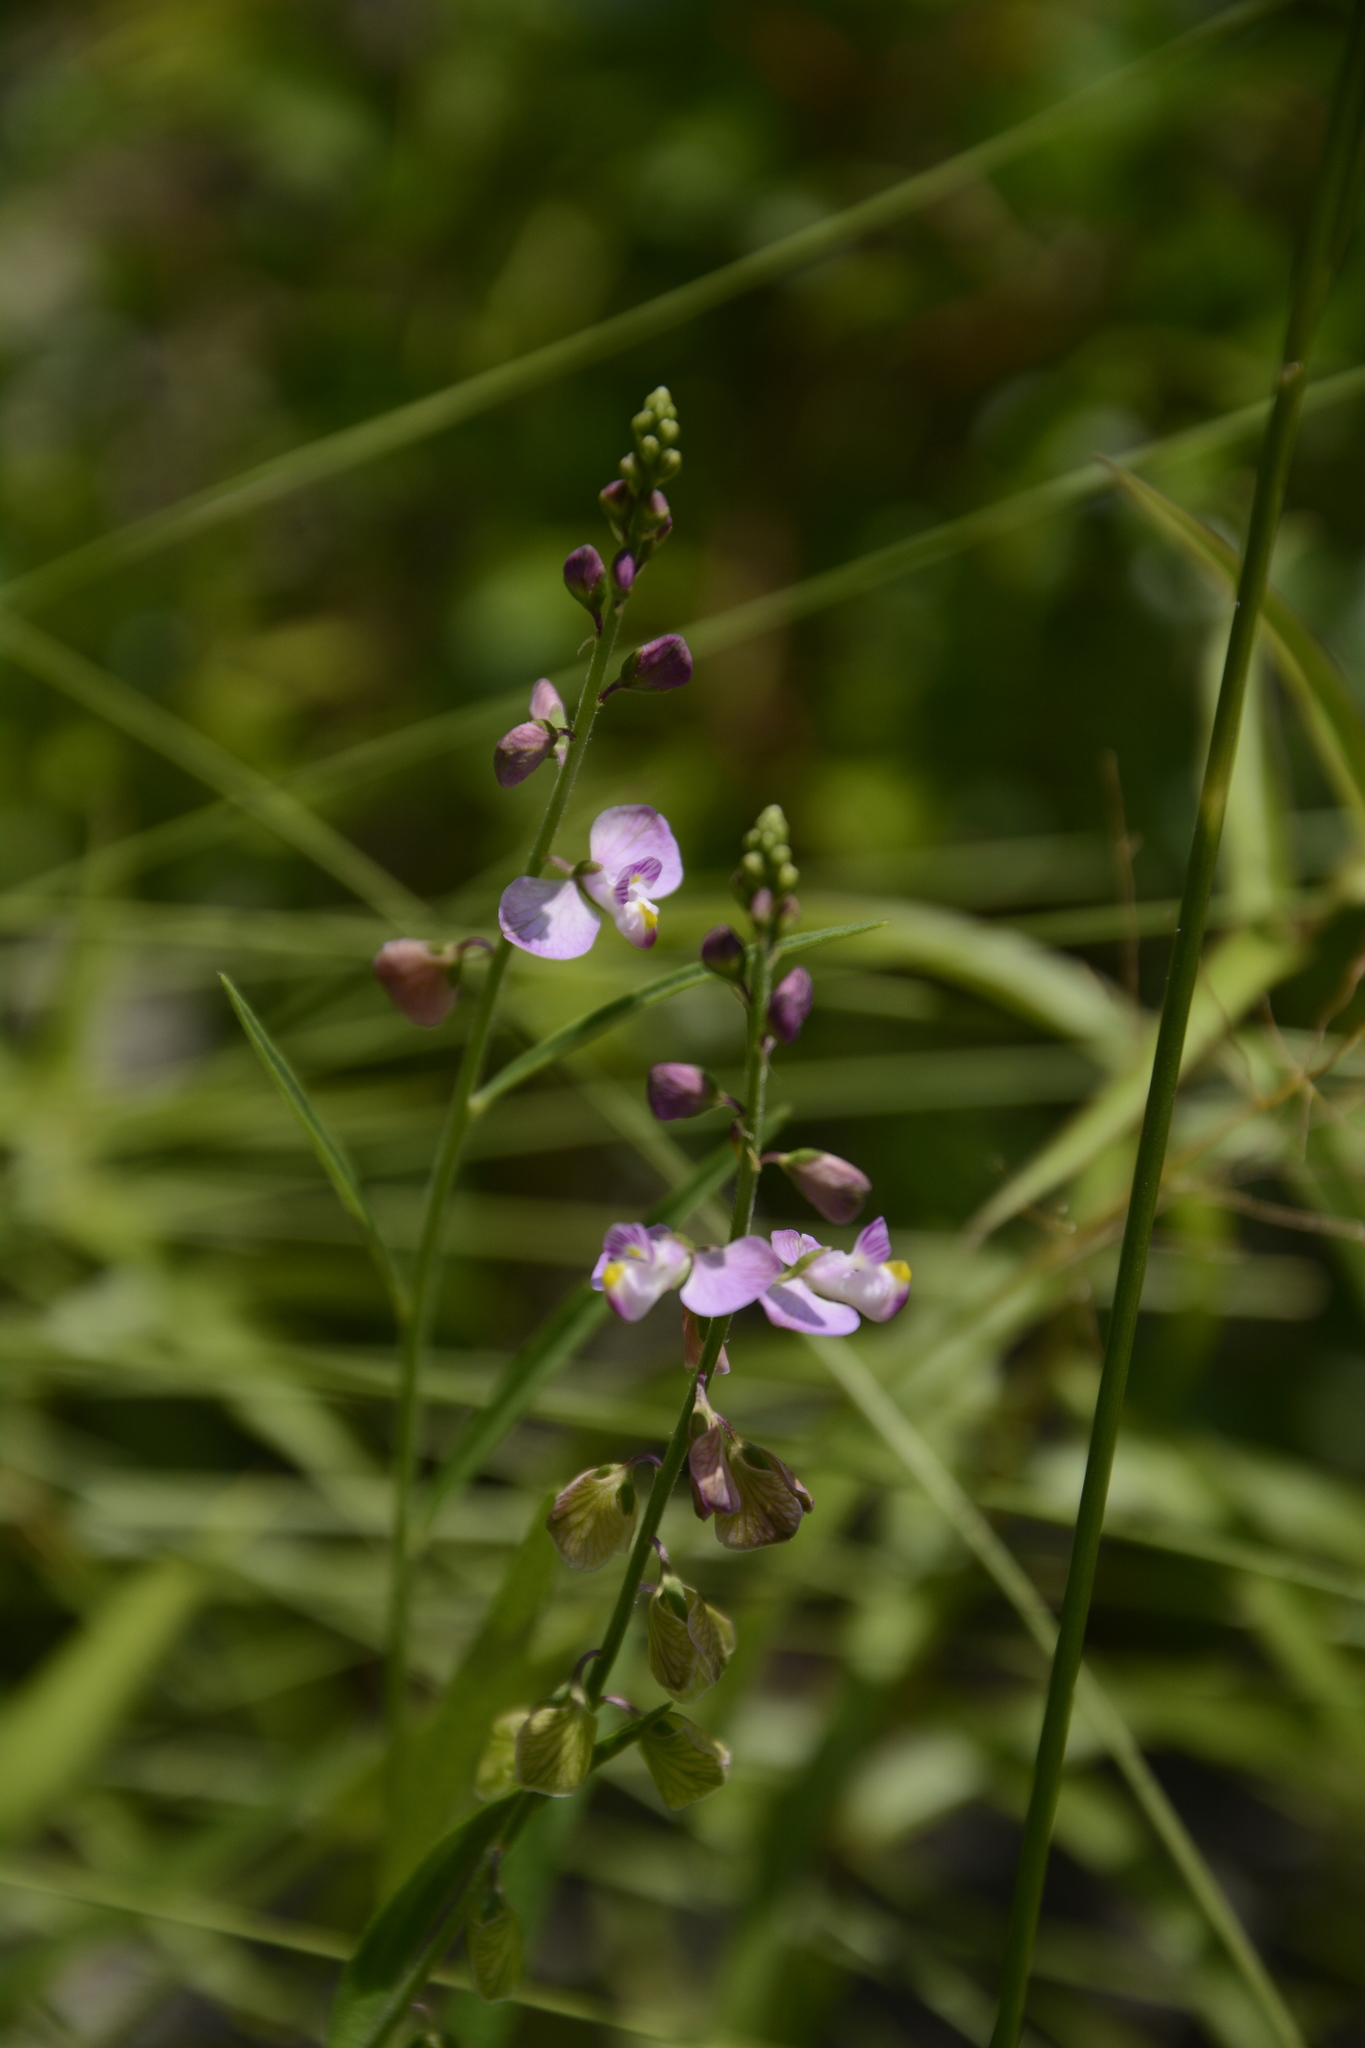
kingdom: Plantae
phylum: Tracheophyta
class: Magnoliopsida
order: Fabales
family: Polygalaceae
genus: Asemeia
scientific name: Asemeia grandiflora
